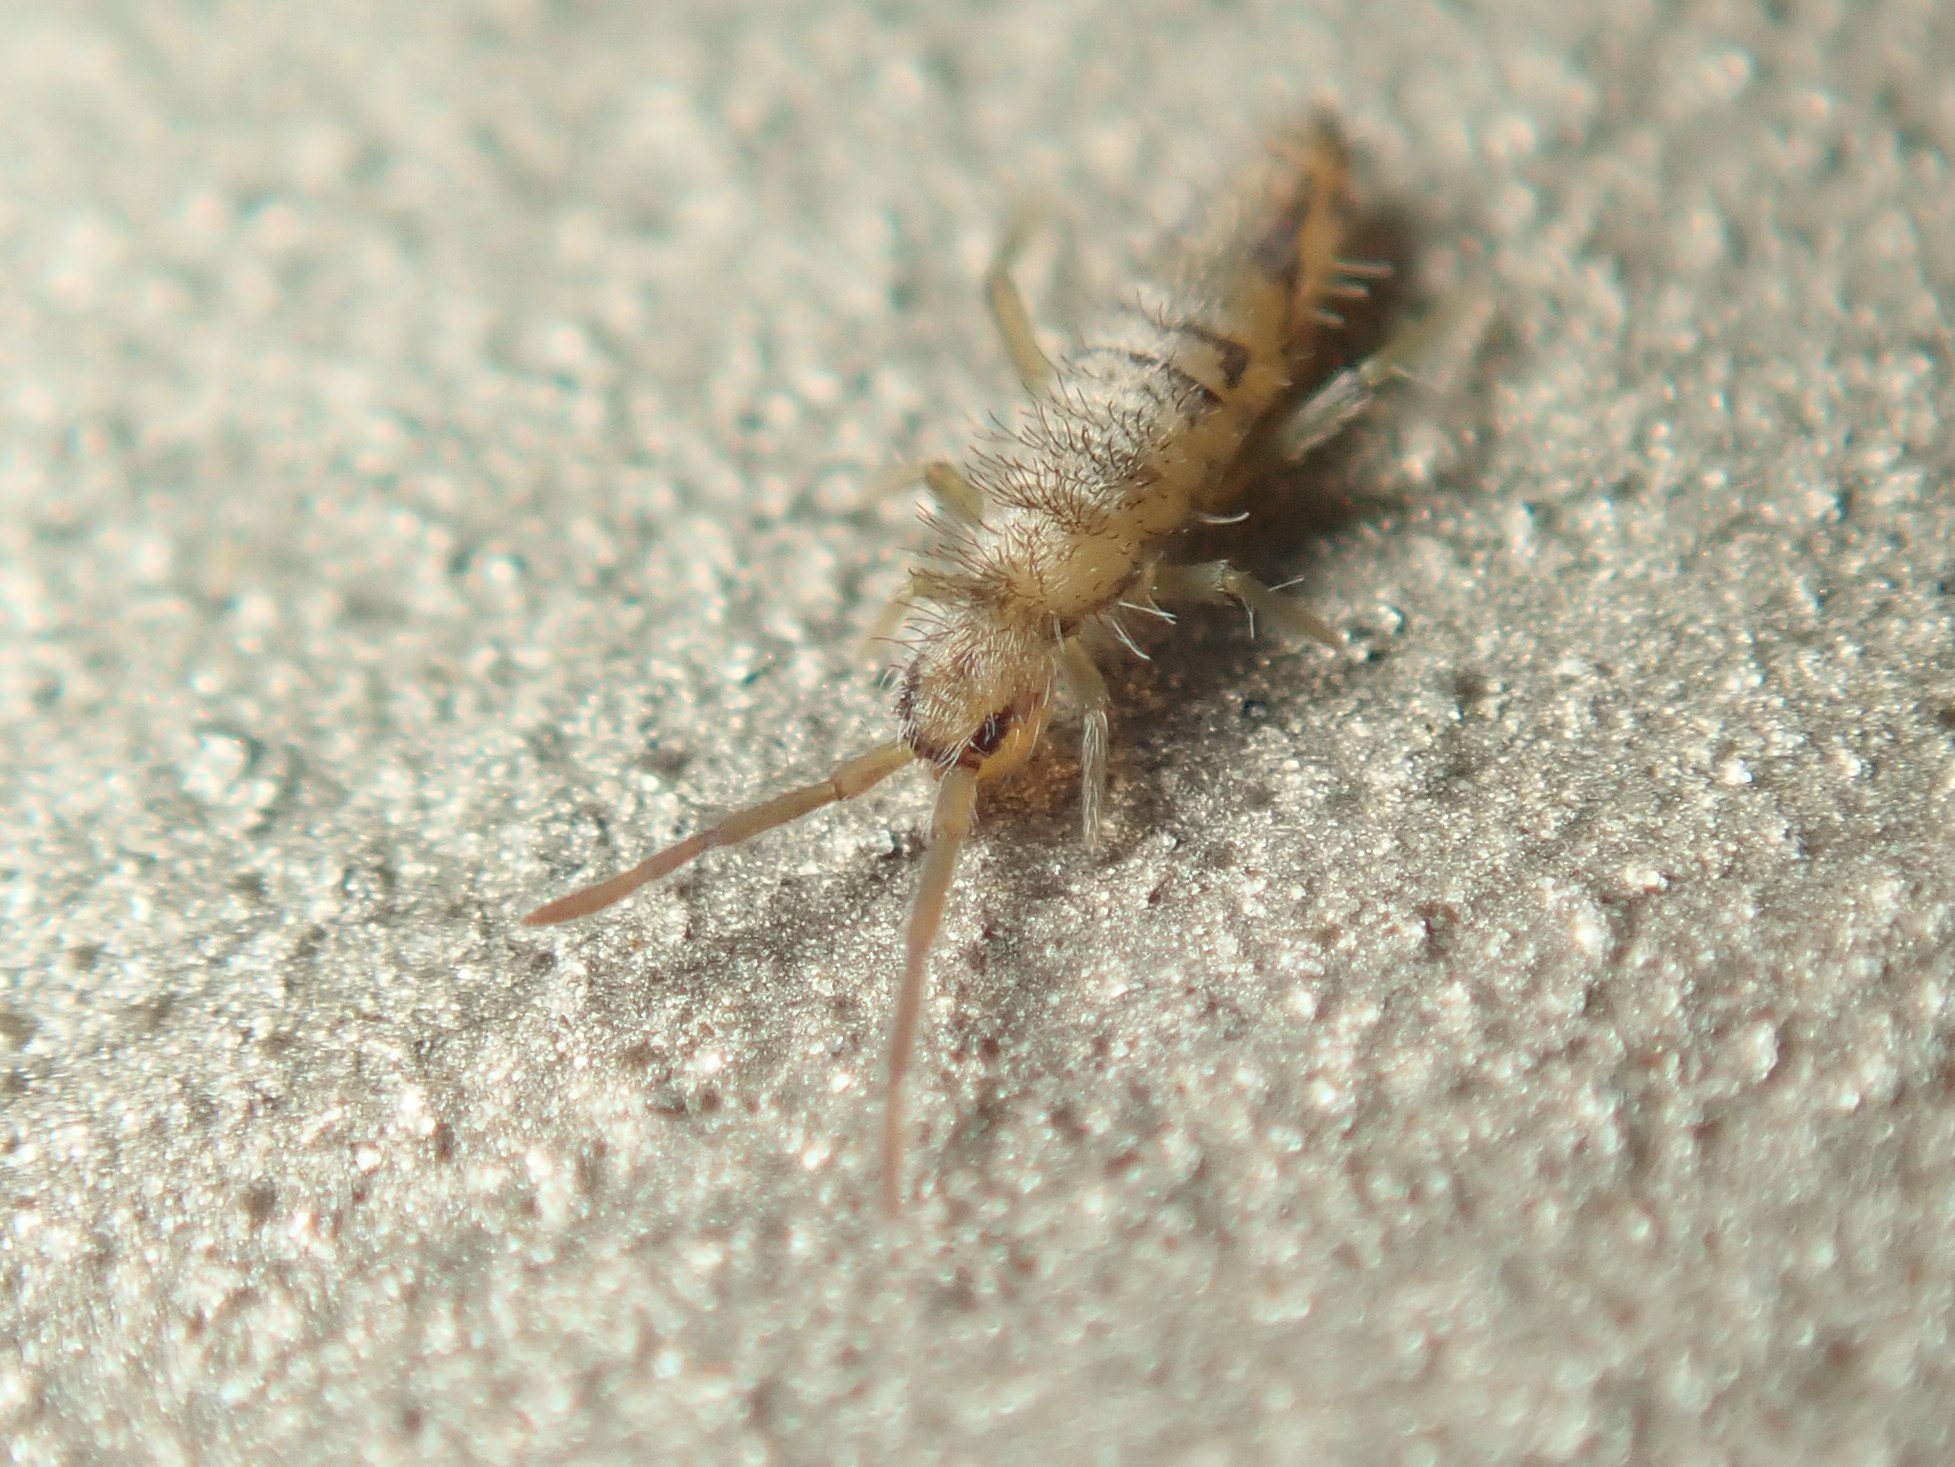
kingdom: Animalia
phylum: Arthropoda
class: Collembola
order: Entomobryomorpha
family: Entomobryidae
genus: Entomobrya
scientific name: Entomobrya nivalis
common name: Cosmopolitan springtail
